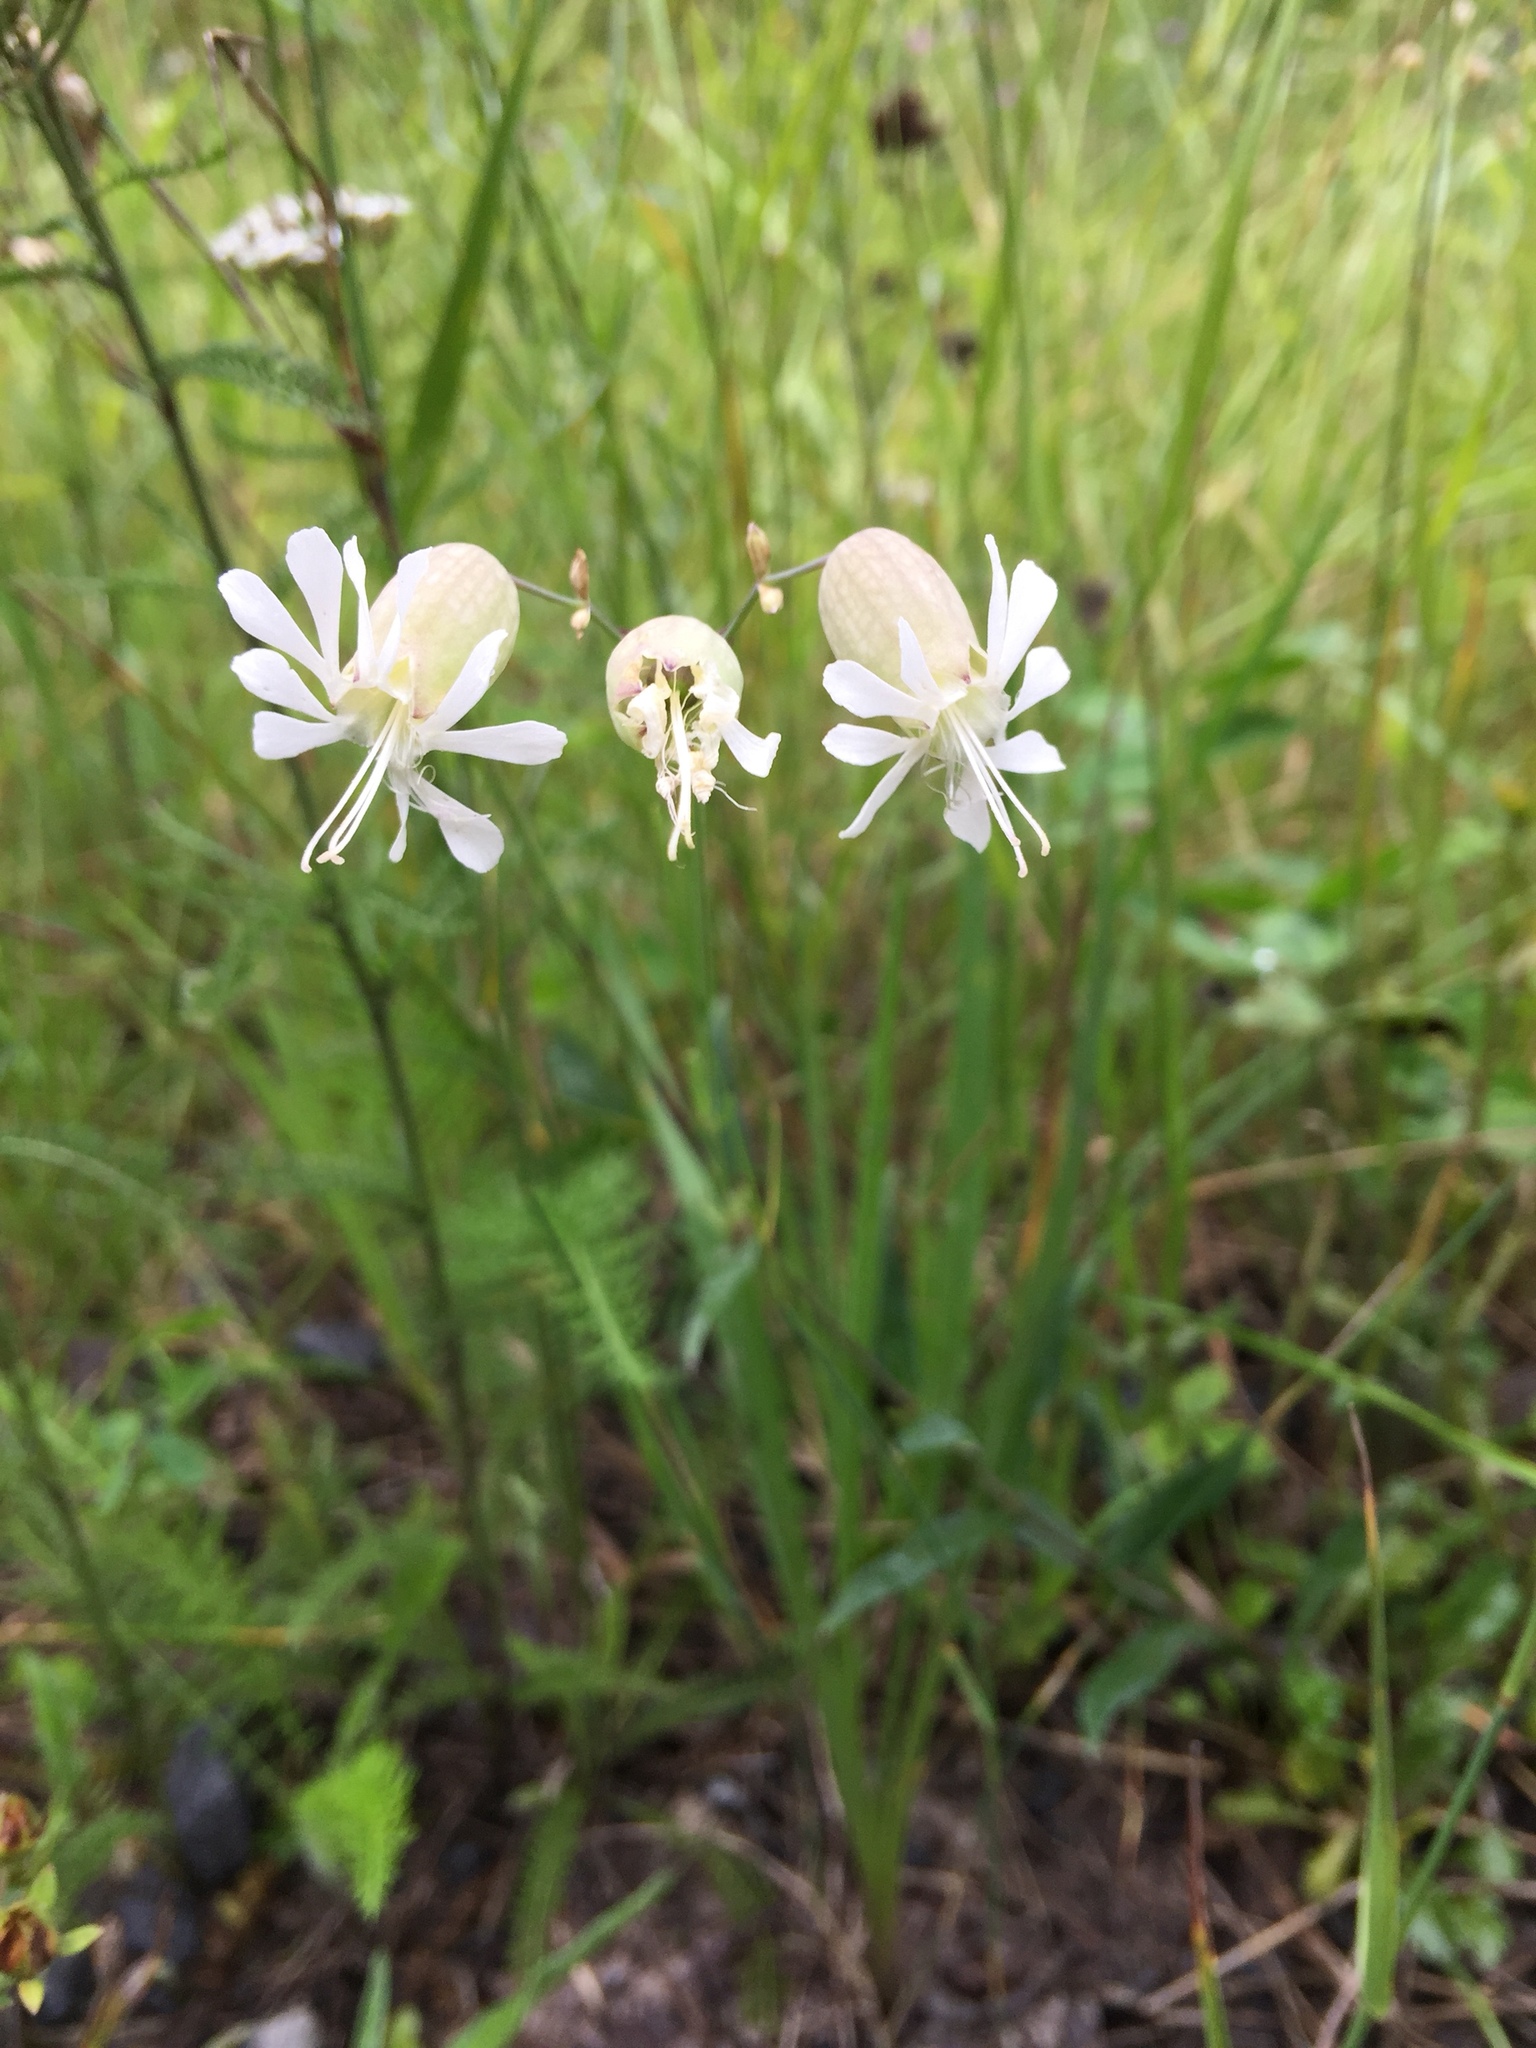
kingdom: Plantae
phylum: Tracheophyta
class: Magnoliopsida
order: Caryophyllales
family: Caryophyllaceae
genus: Silene
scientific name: Silene vulgaris
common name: Bladder campion
